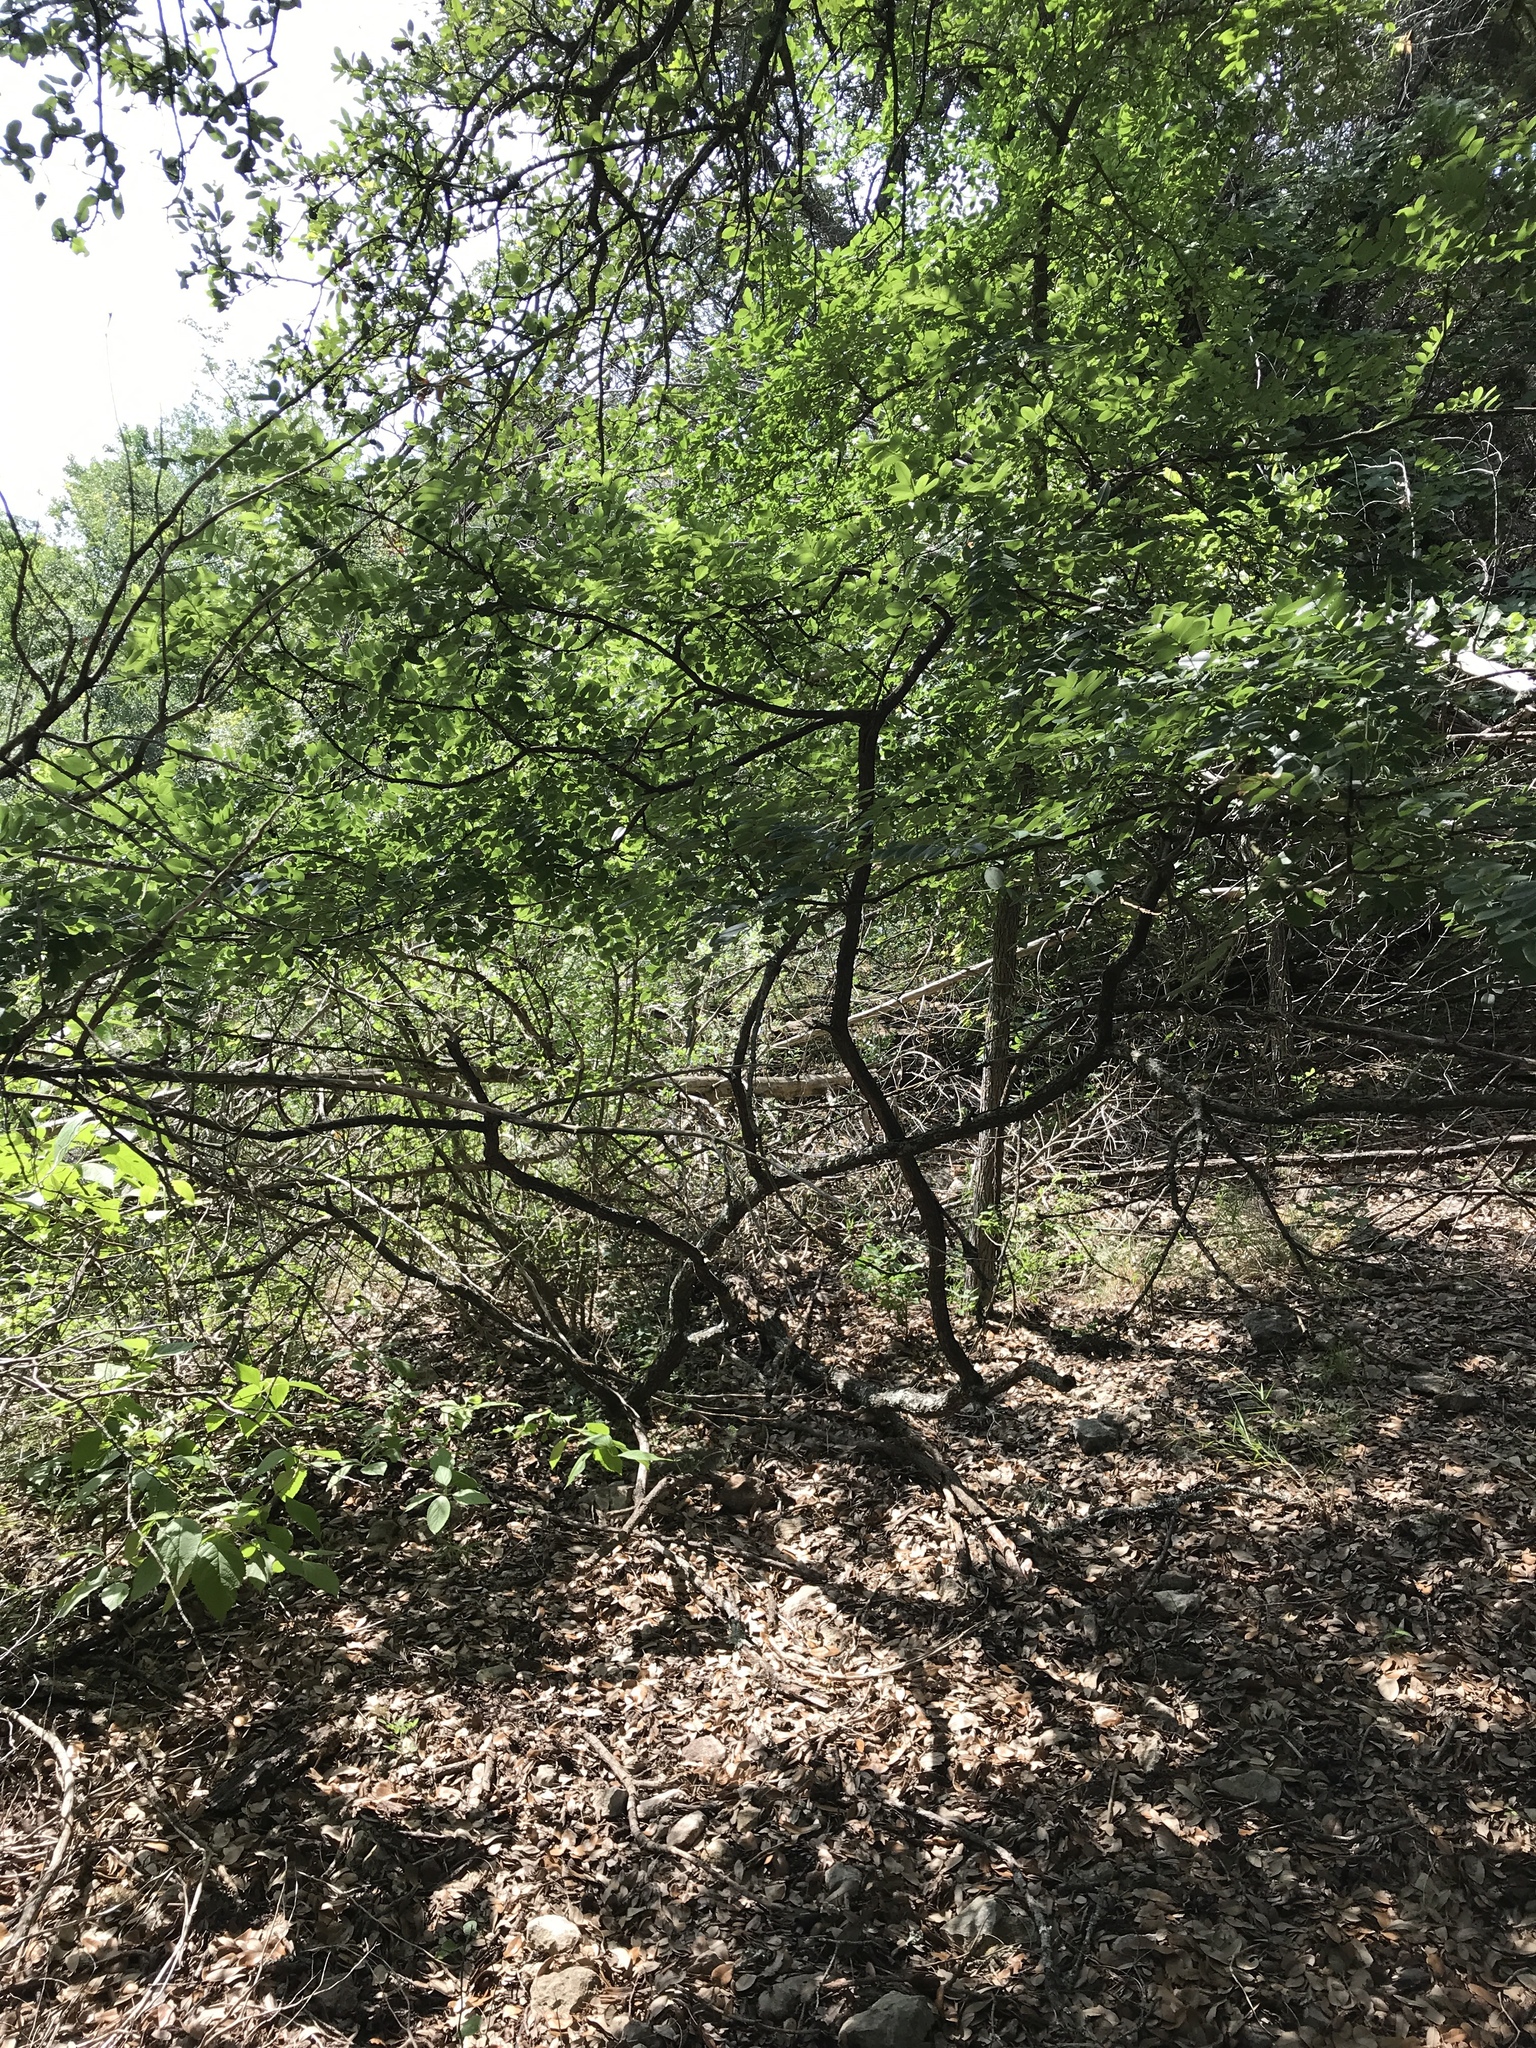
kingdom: Plantae
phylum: Tracheophyta
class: Magnoliopsida
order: Fabales
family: Fabaceae
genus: Styphnolobium
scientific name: Styphnolobium affine
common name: Texas sophora
